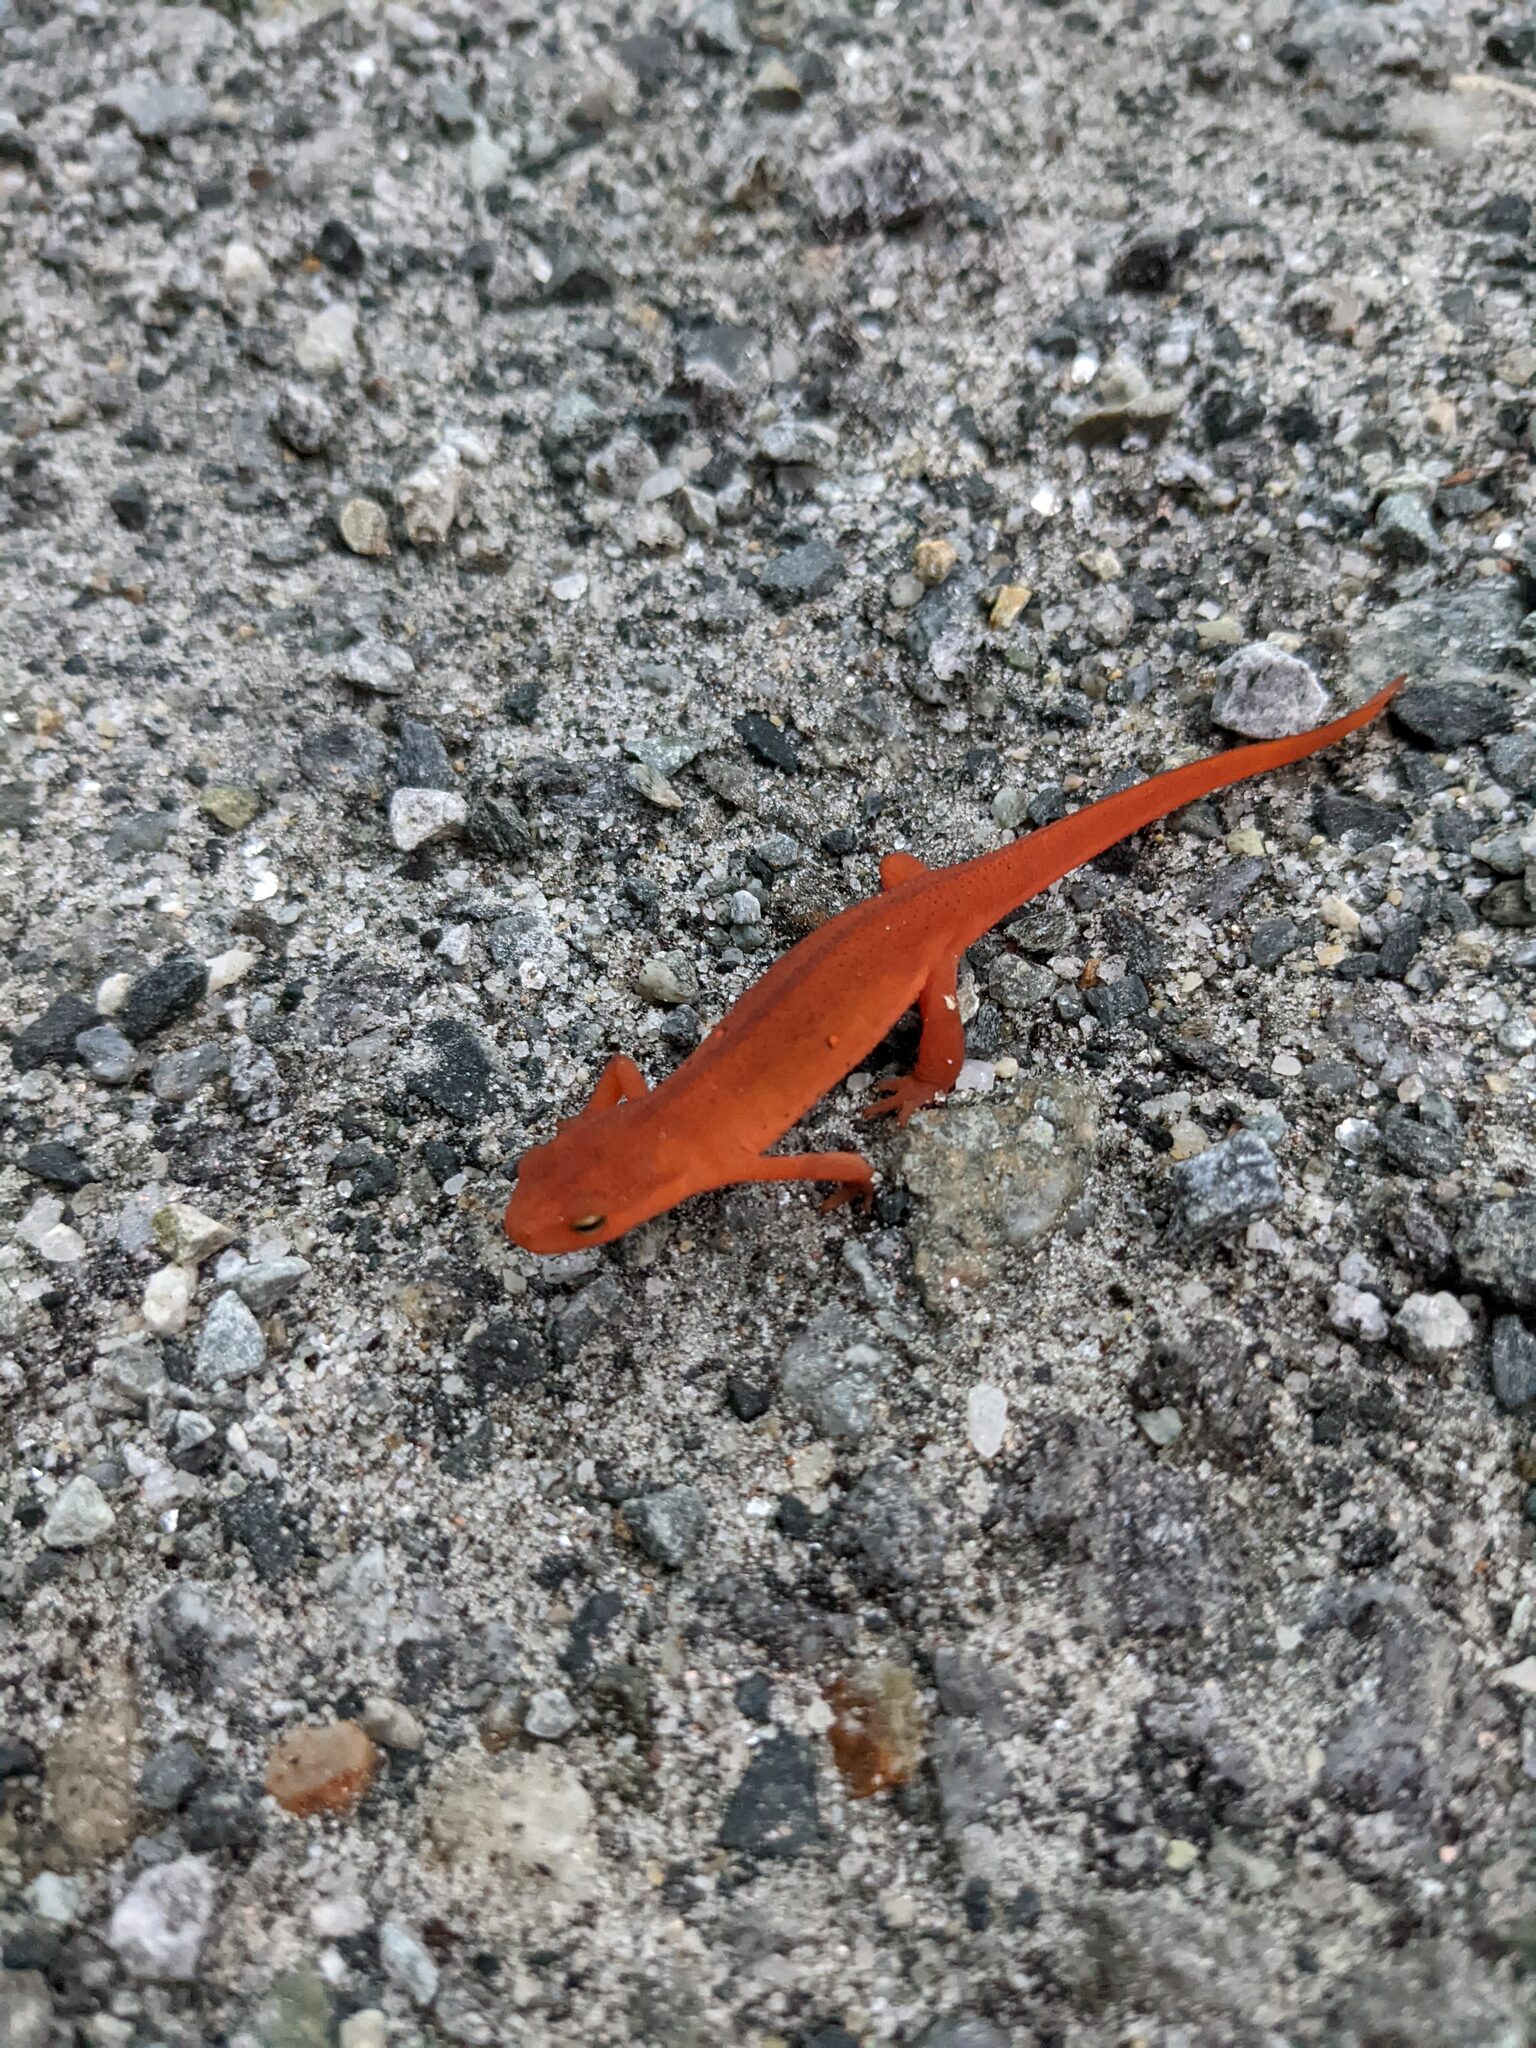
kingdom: Animalia
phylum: Chordata
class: Amphibia
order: Caudata
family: Salamandridae
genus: Notophthalmus
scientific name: Notophthalmus viridescens
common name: Eastern newt
